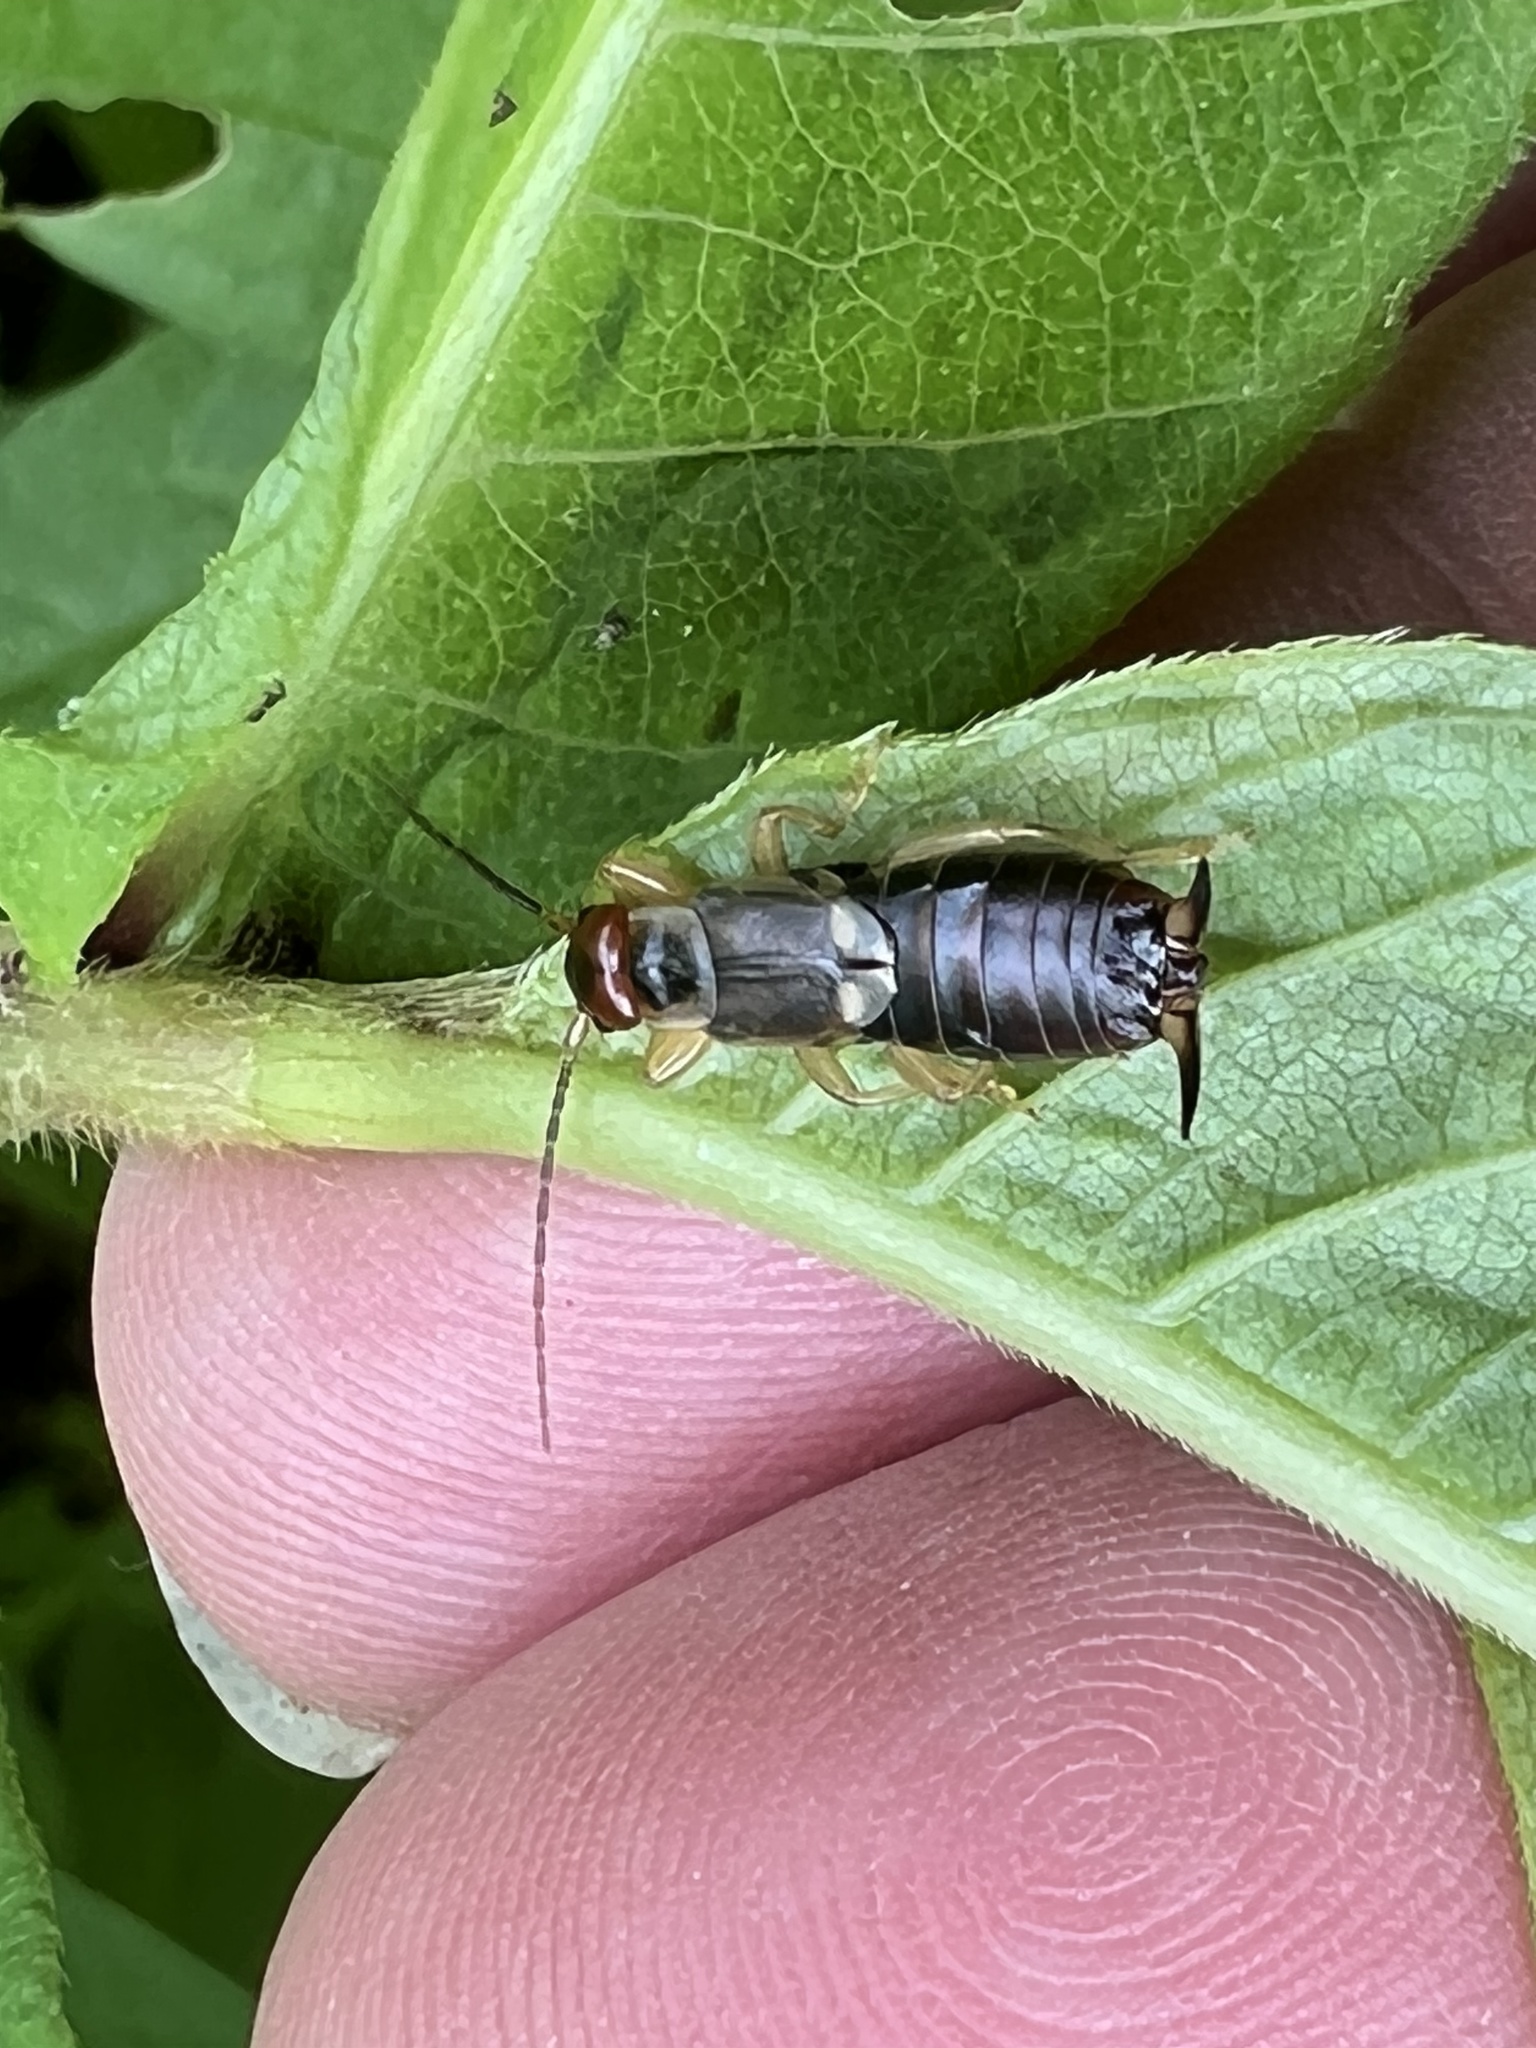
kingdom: Animalia
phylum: Arthropoda
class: Insecta
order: Dermaptera
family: Forficulidae
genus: Forficula
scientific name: Forficula
